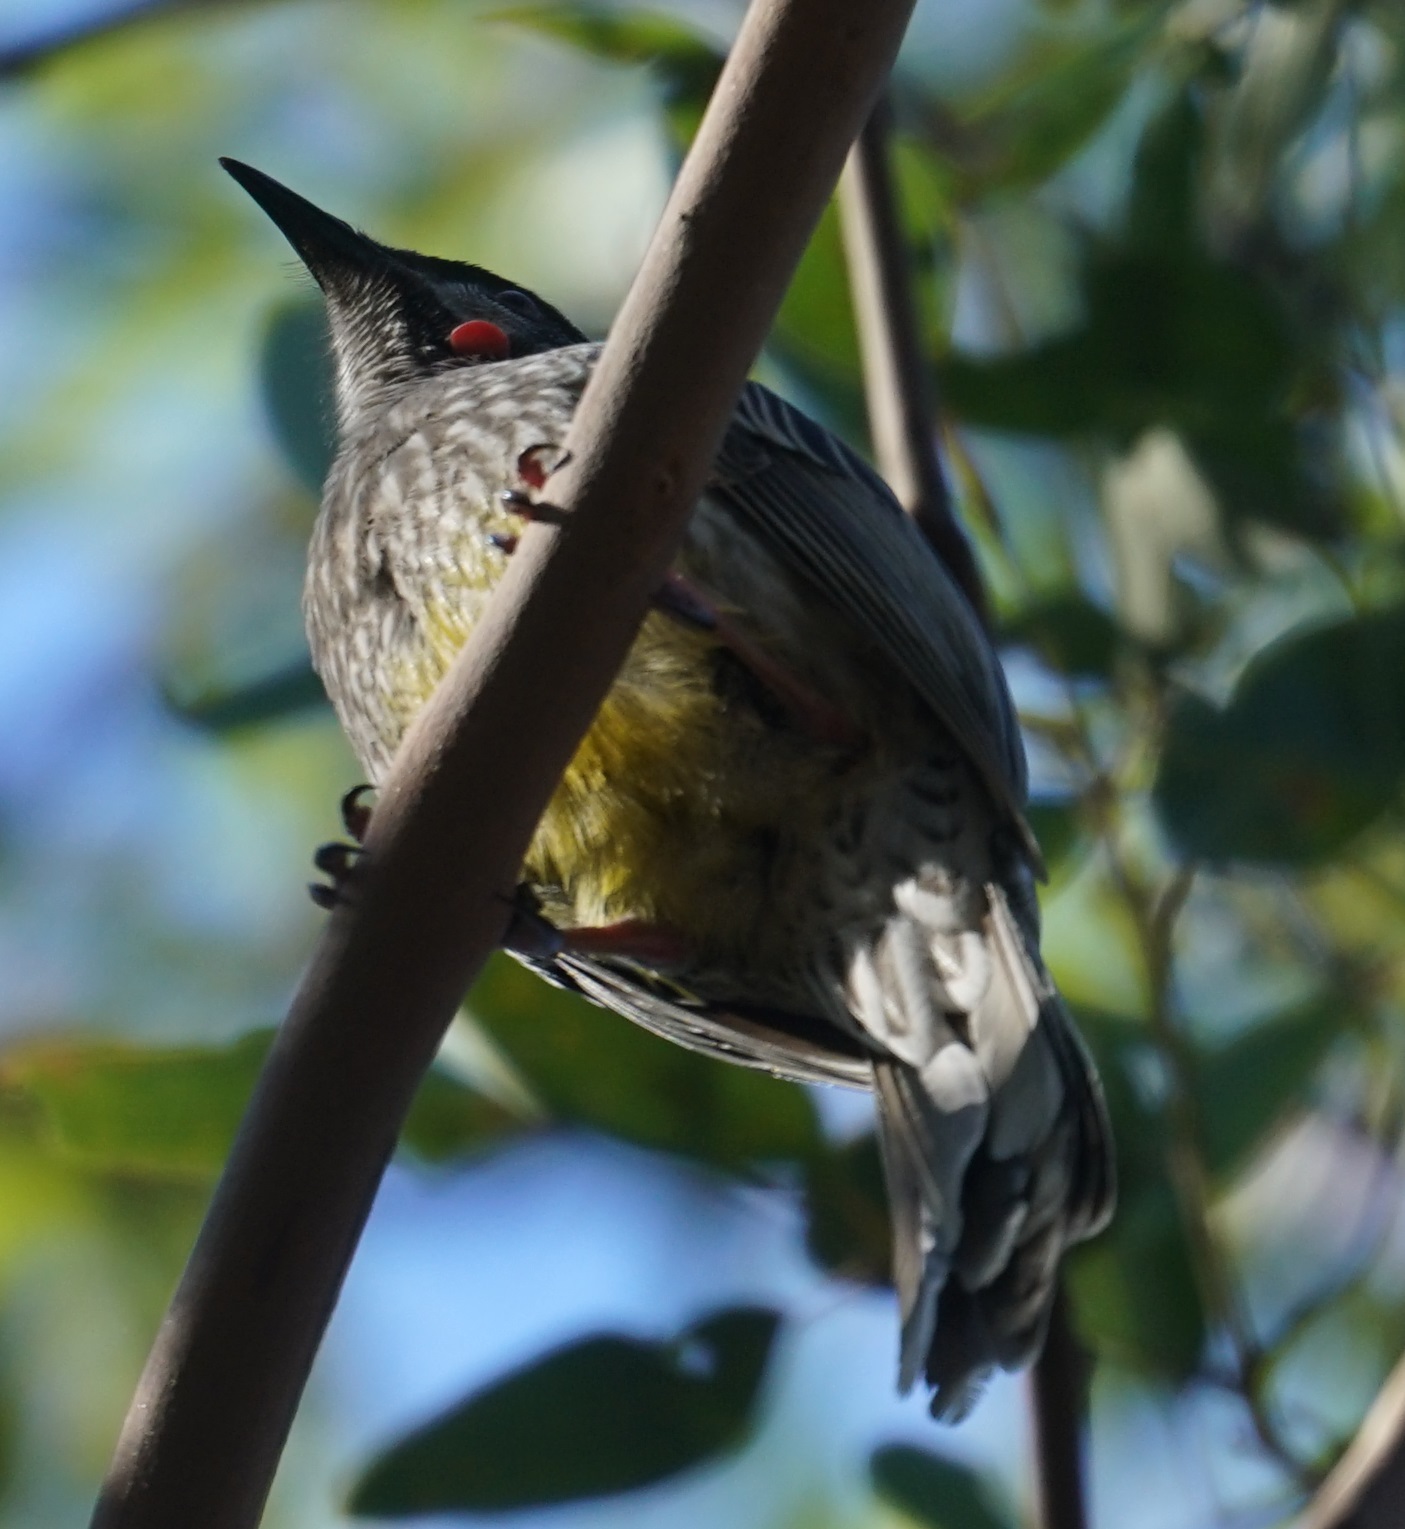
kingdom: Animalia
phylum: Chordata
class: Aves
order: Passeriformes
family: Meliphagidae
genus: Anthochaera
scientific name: Anthochaera carunculata
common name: Red wattlebird
